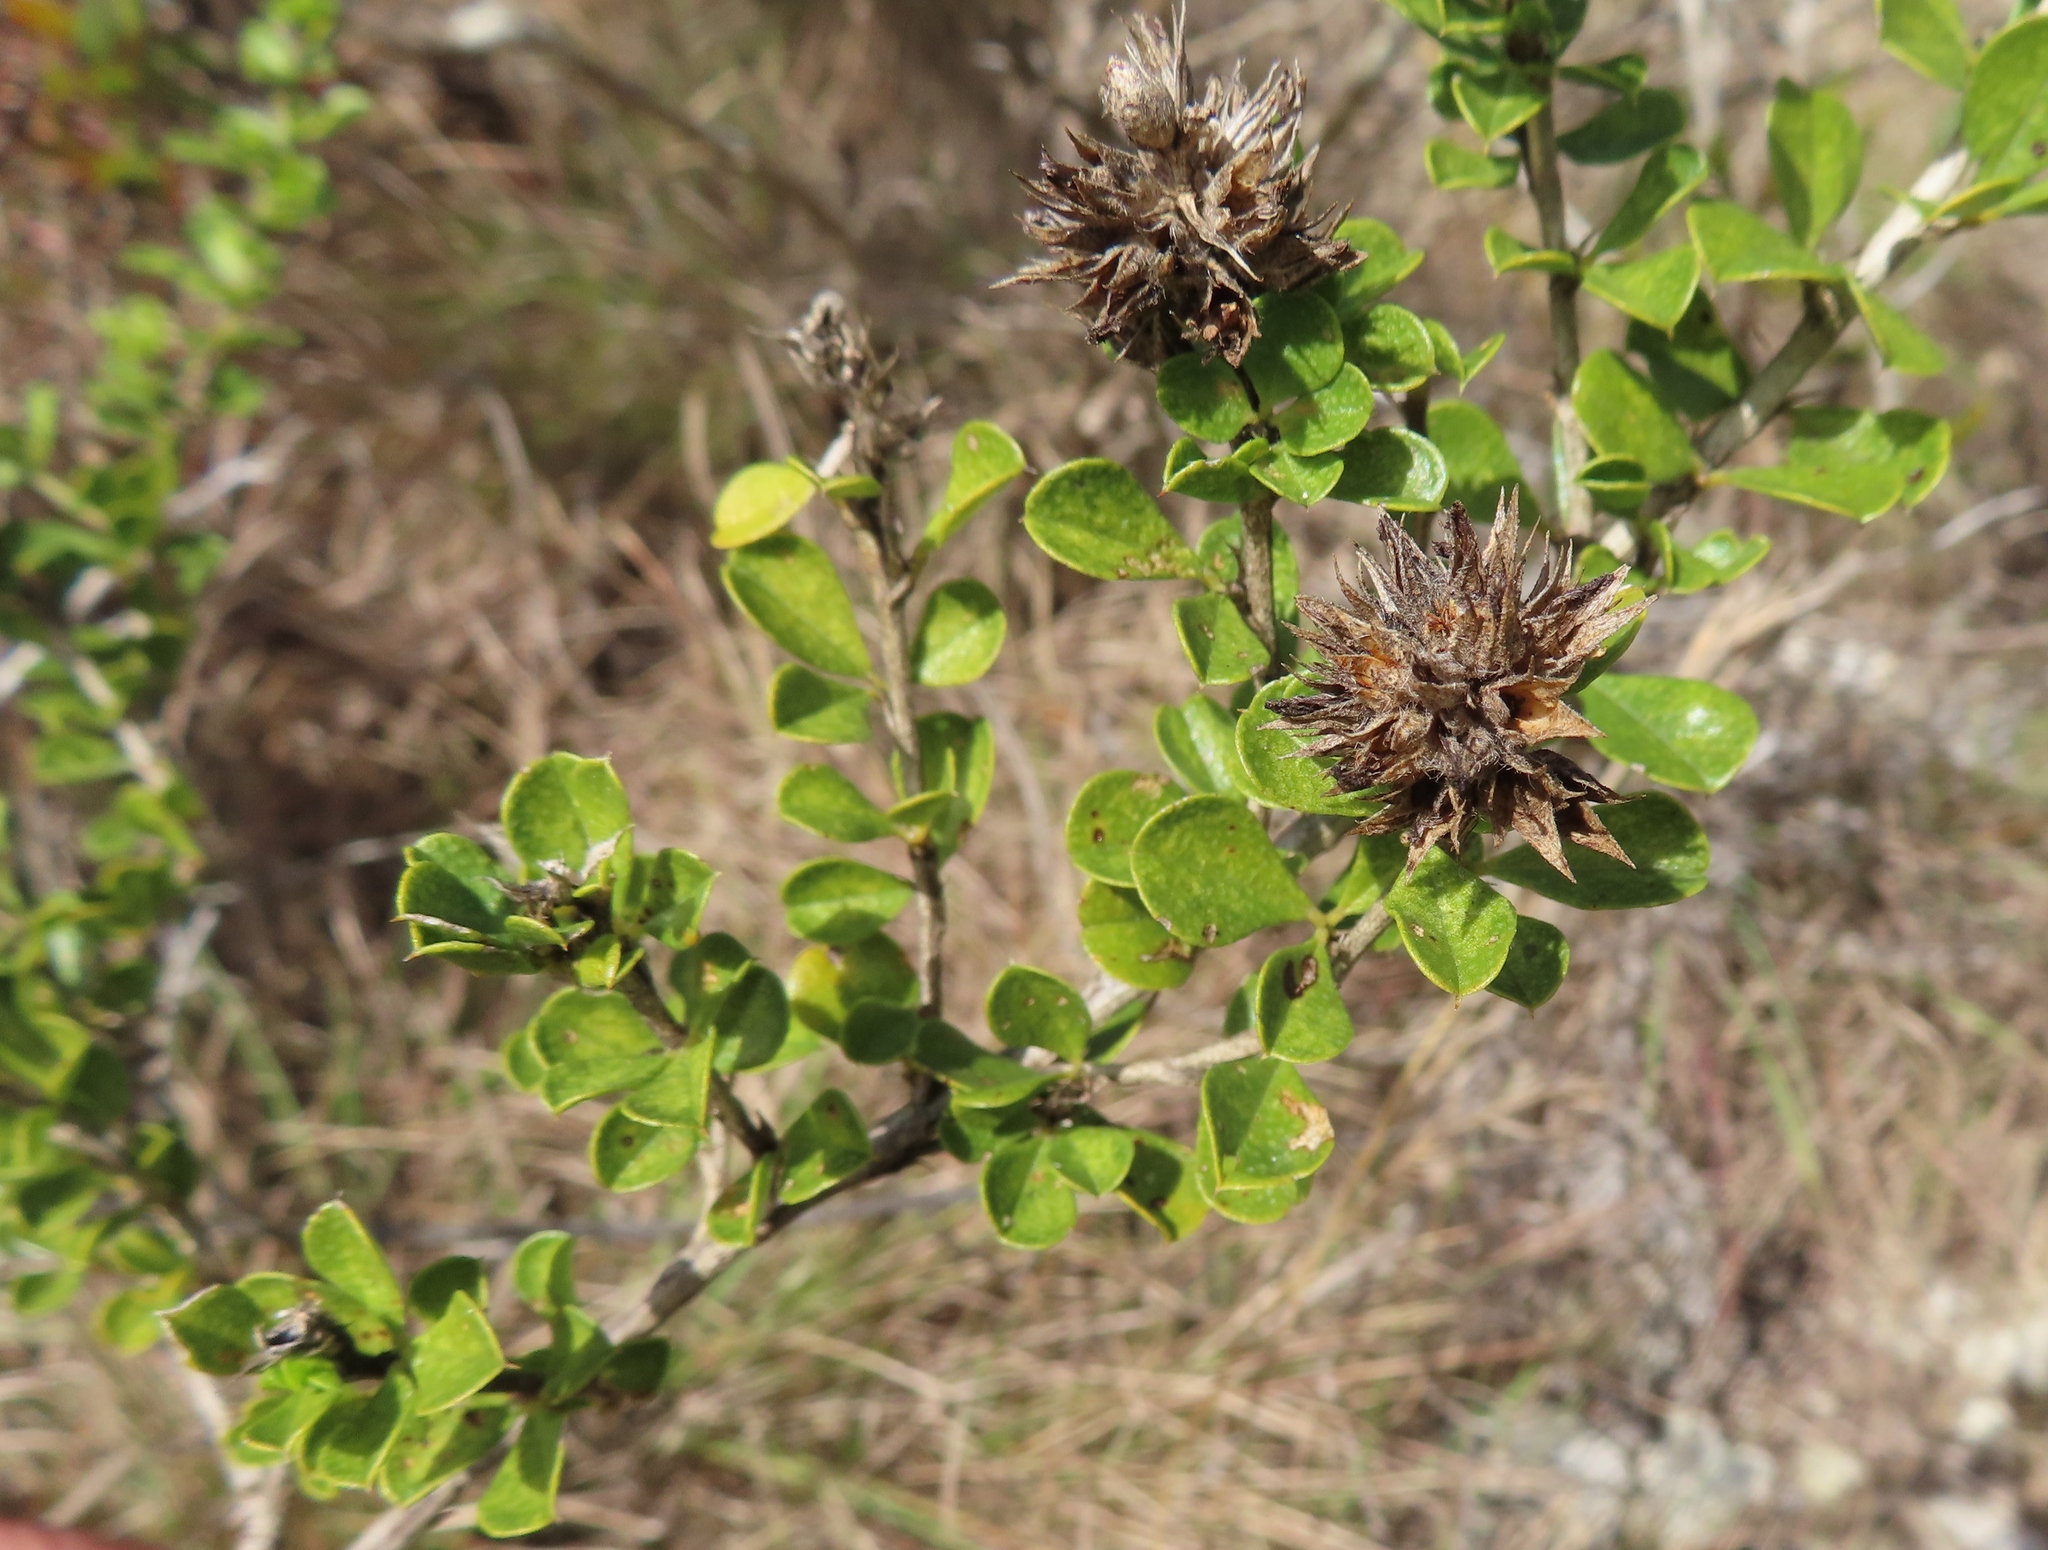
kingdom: Plantae
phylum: Tracheophyta
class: Magnoliopsida
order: Fabales
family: Fabaceae
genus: Psoralea
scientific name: Psoralea bracteolata
